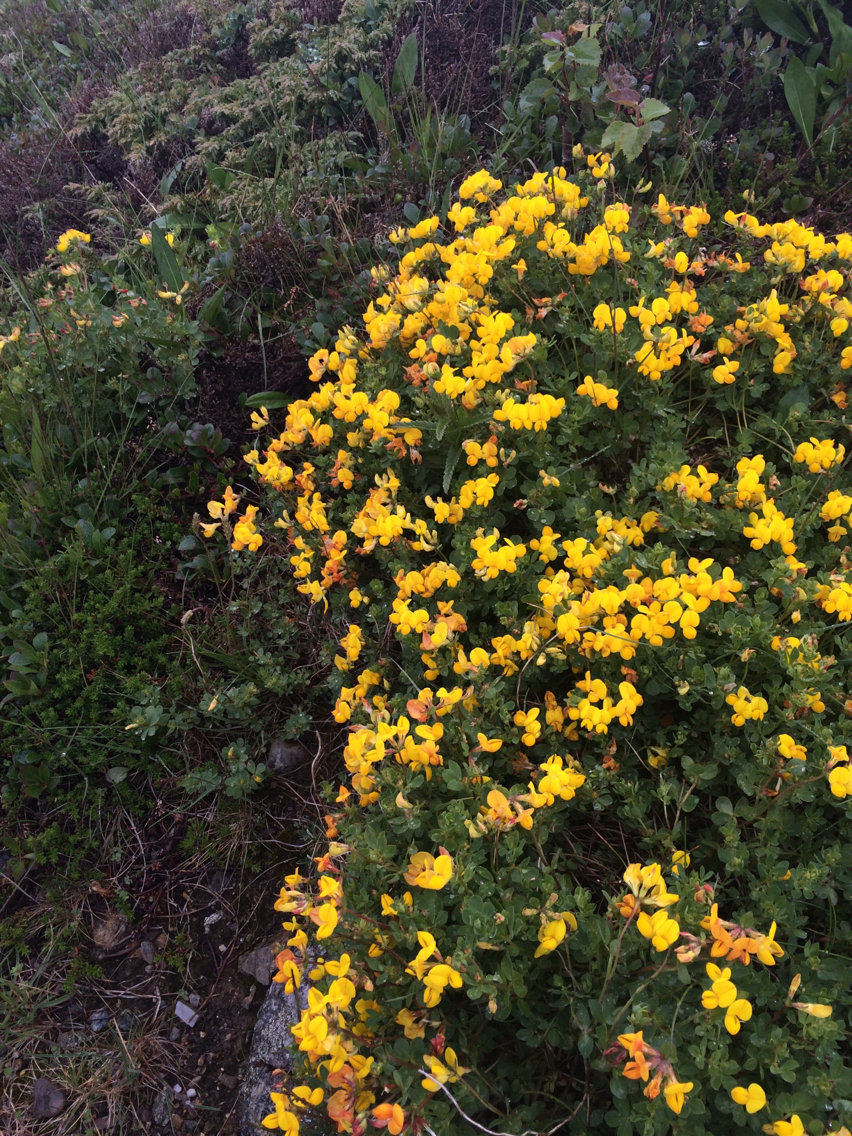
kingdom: Plantae
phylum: Tracheophyta
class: Magnoliopsida
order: Fabales
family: Fabaceae
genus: Lotus
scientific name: Lotus corniculatus
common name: Common bird's-foot-trefoil
